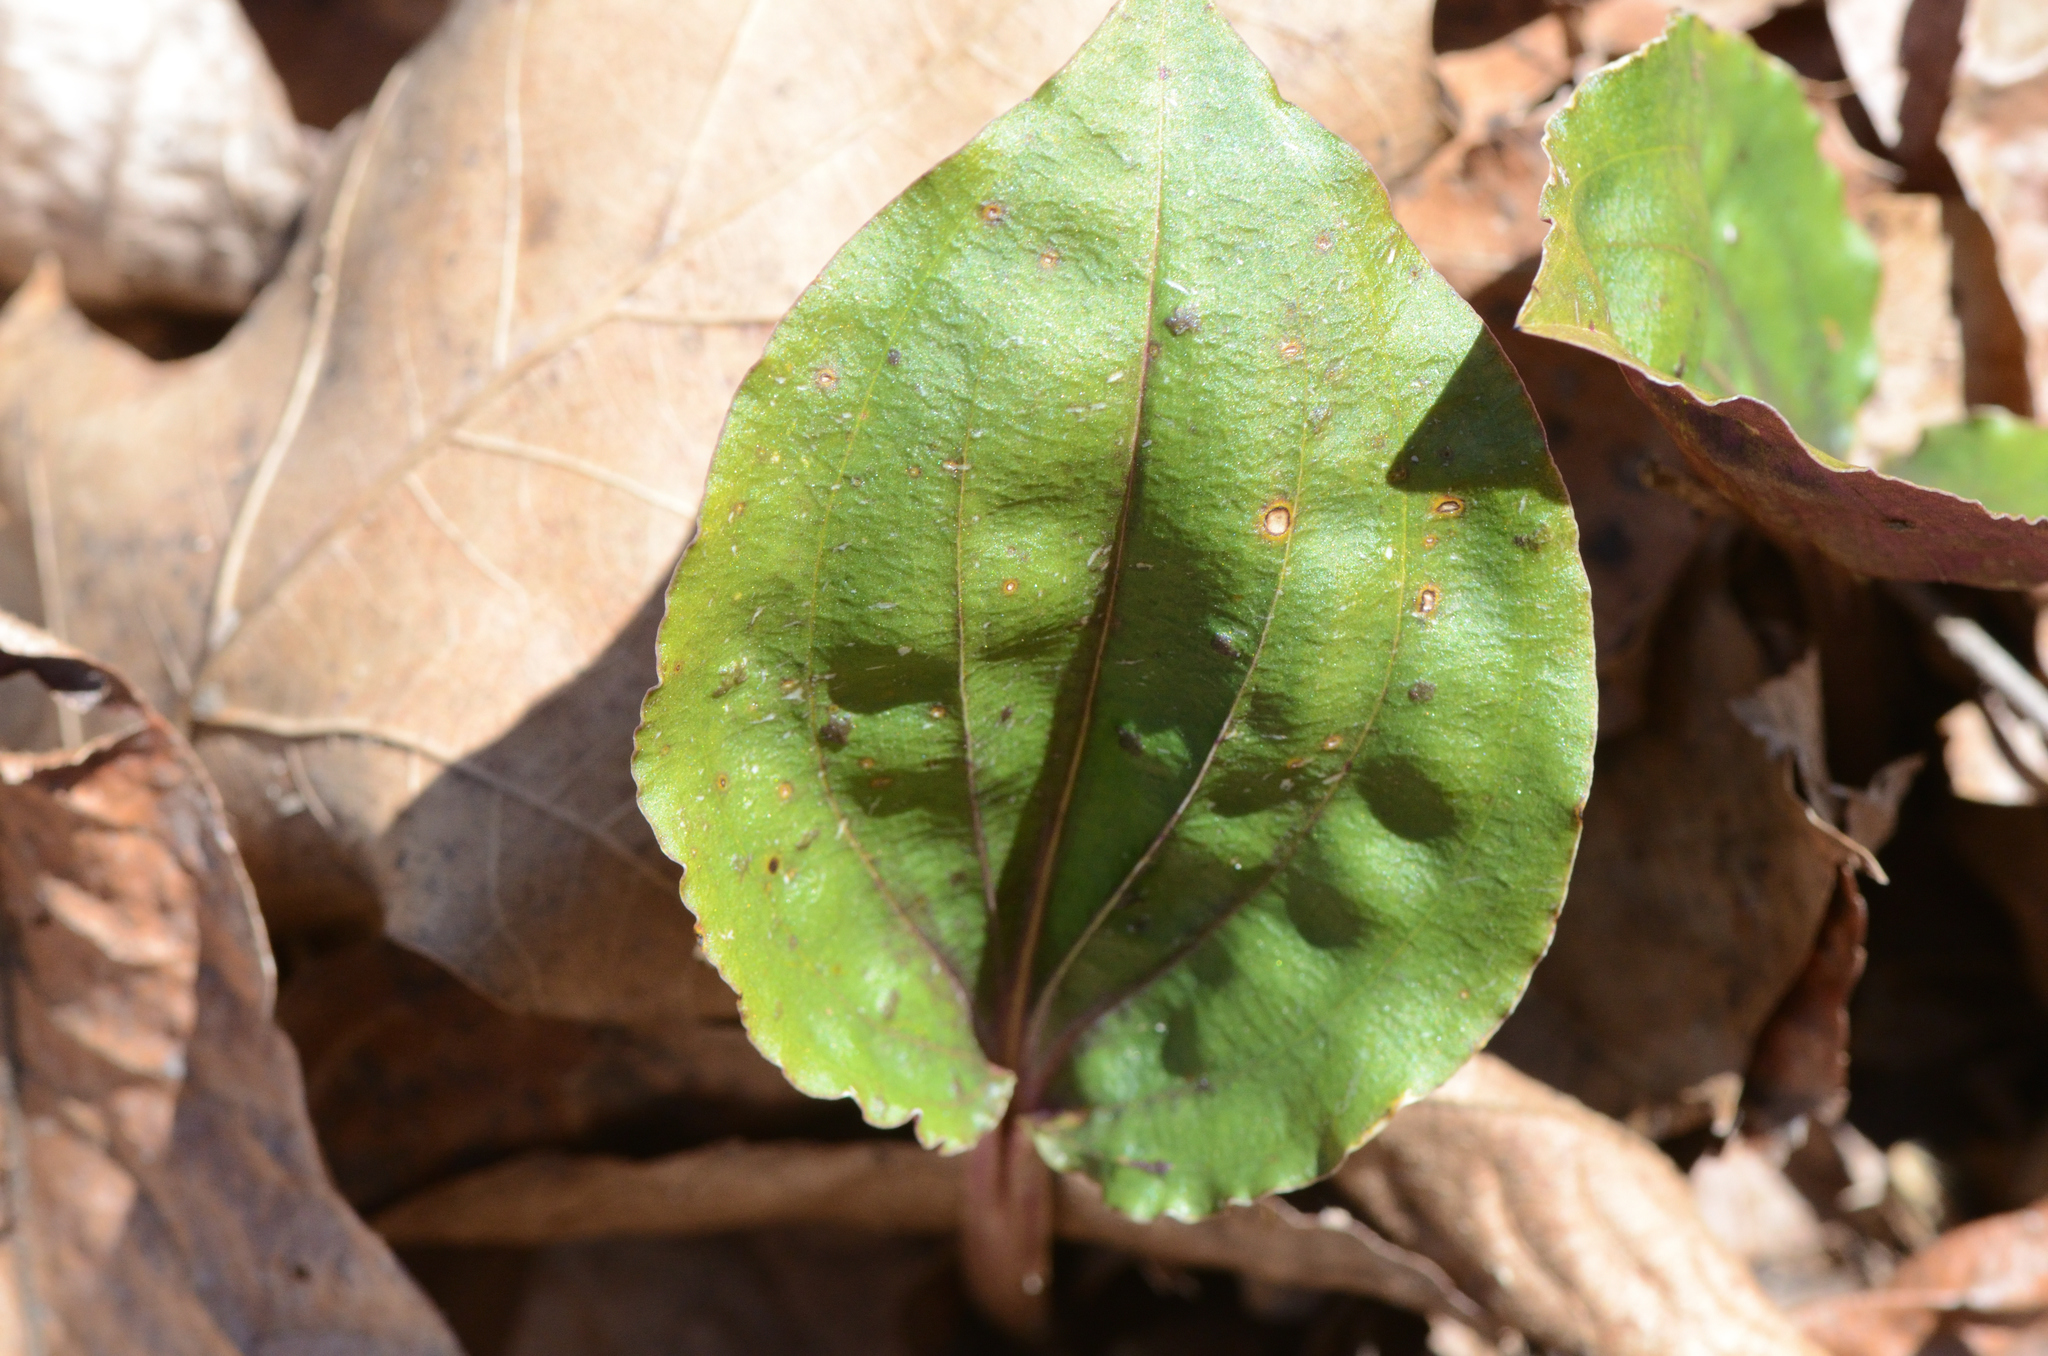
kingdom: Plantae
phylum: Tracheophyta
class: Liliopsida
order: Asparagales
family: Orchidaceae
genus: Tipularia
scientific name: Tipularia discolor
